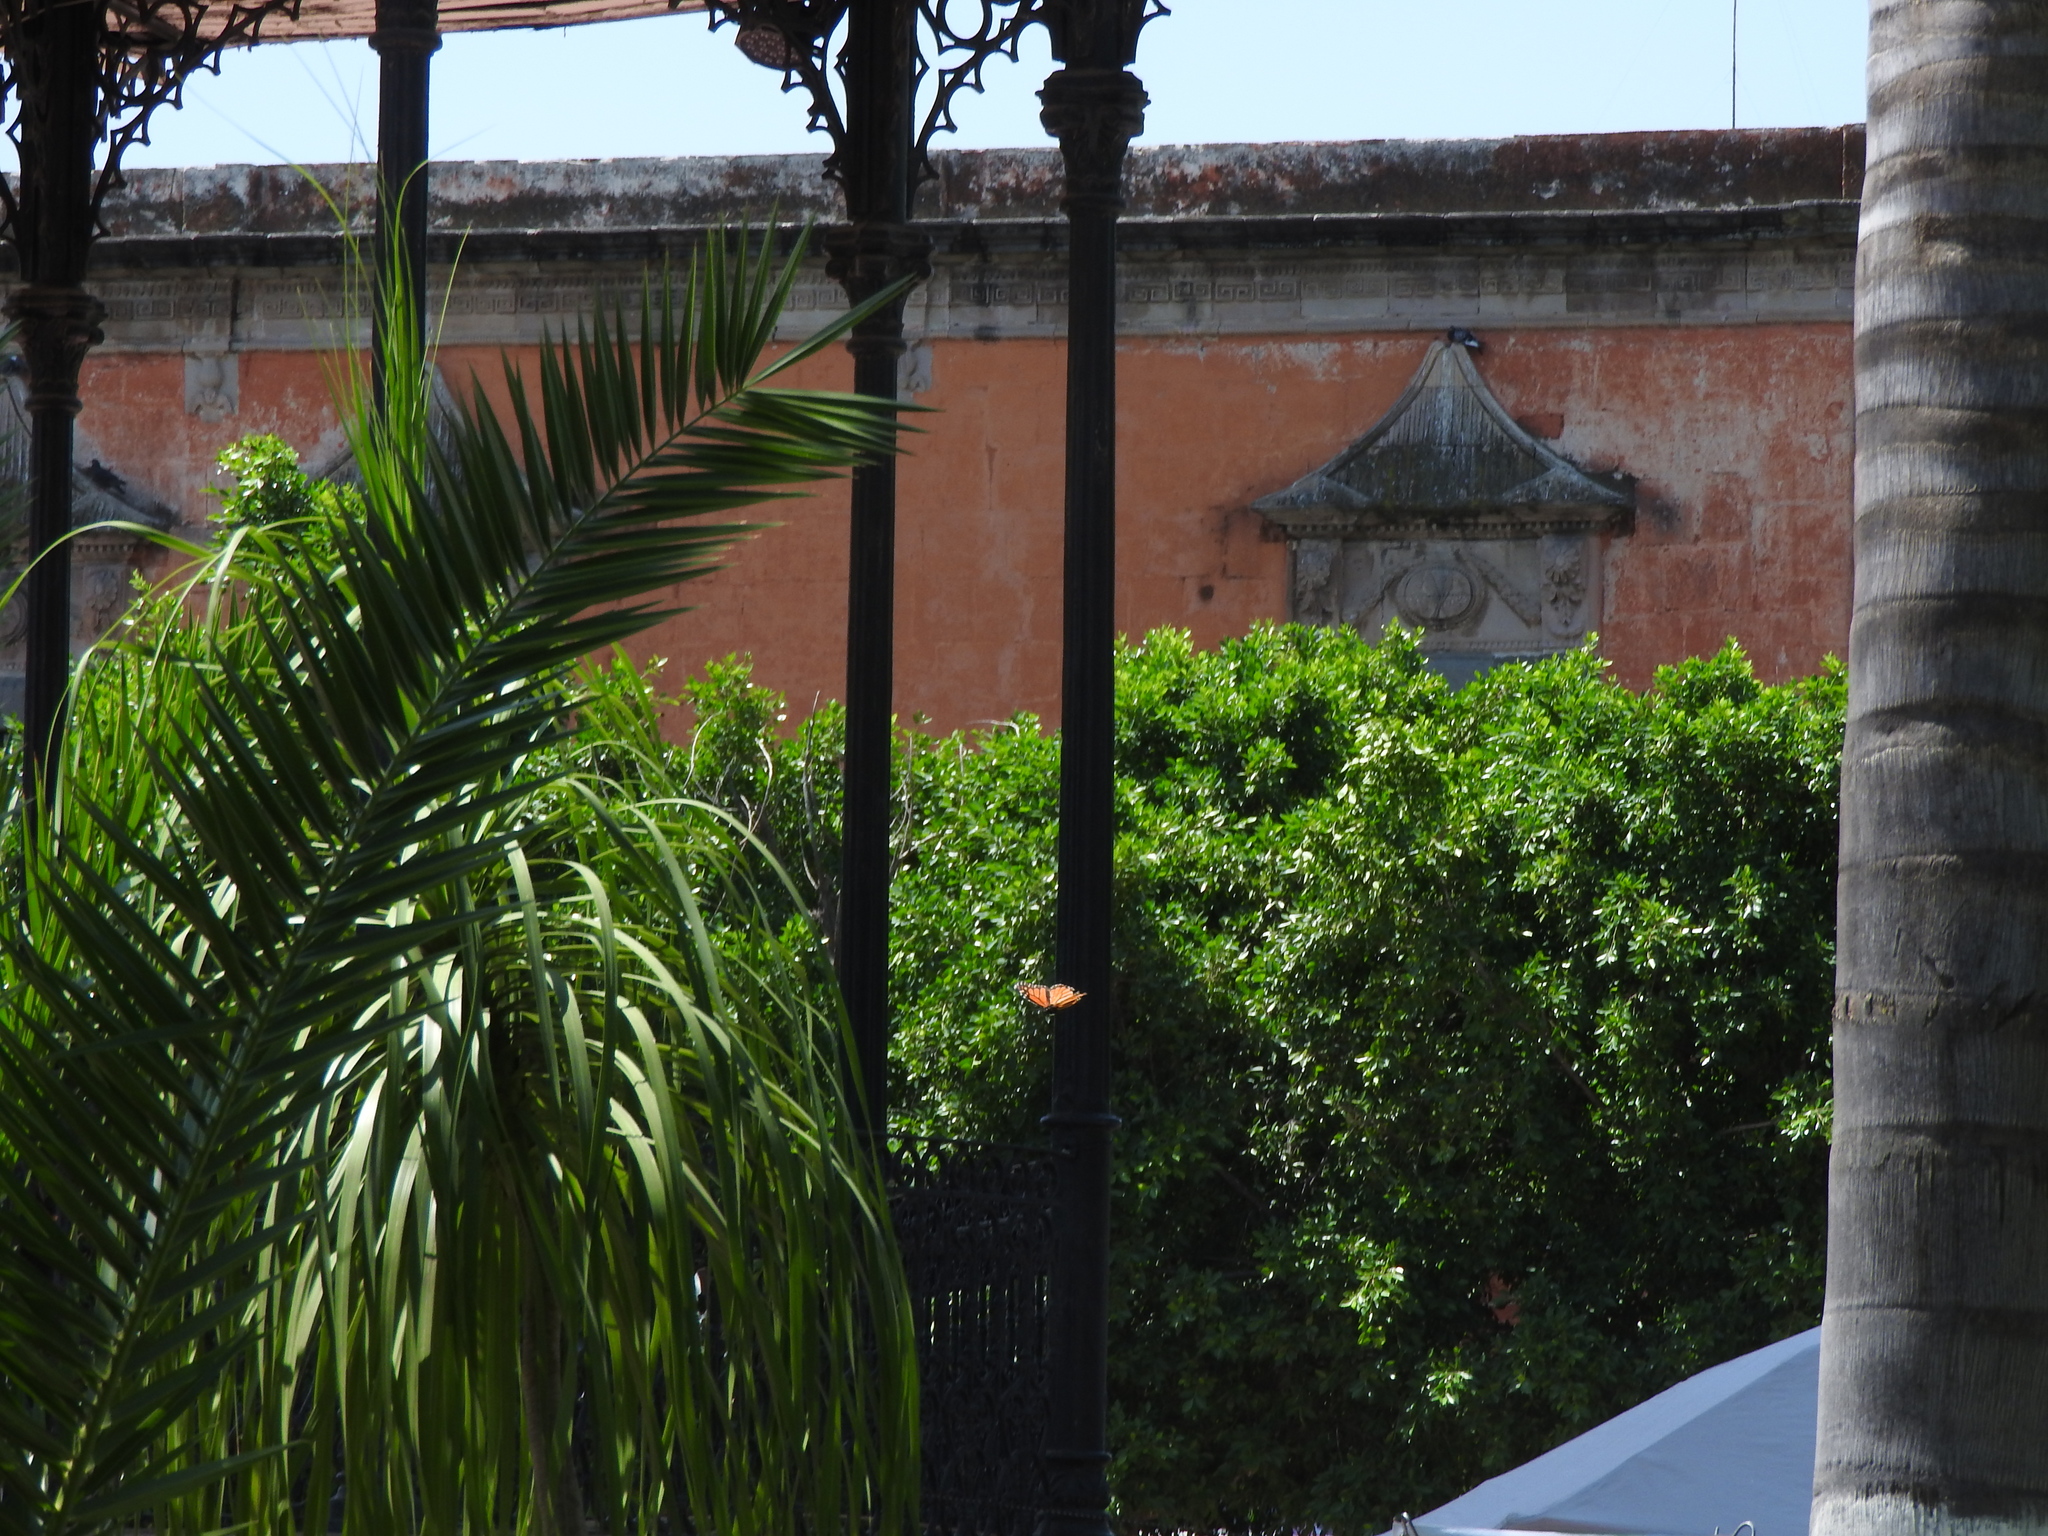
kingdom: Animalia
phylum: Arthropoda
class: Insecta
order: Lepidoptera
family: Nymphalidae
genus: Danaus
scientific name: Danaus plexippus
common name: Monarch
